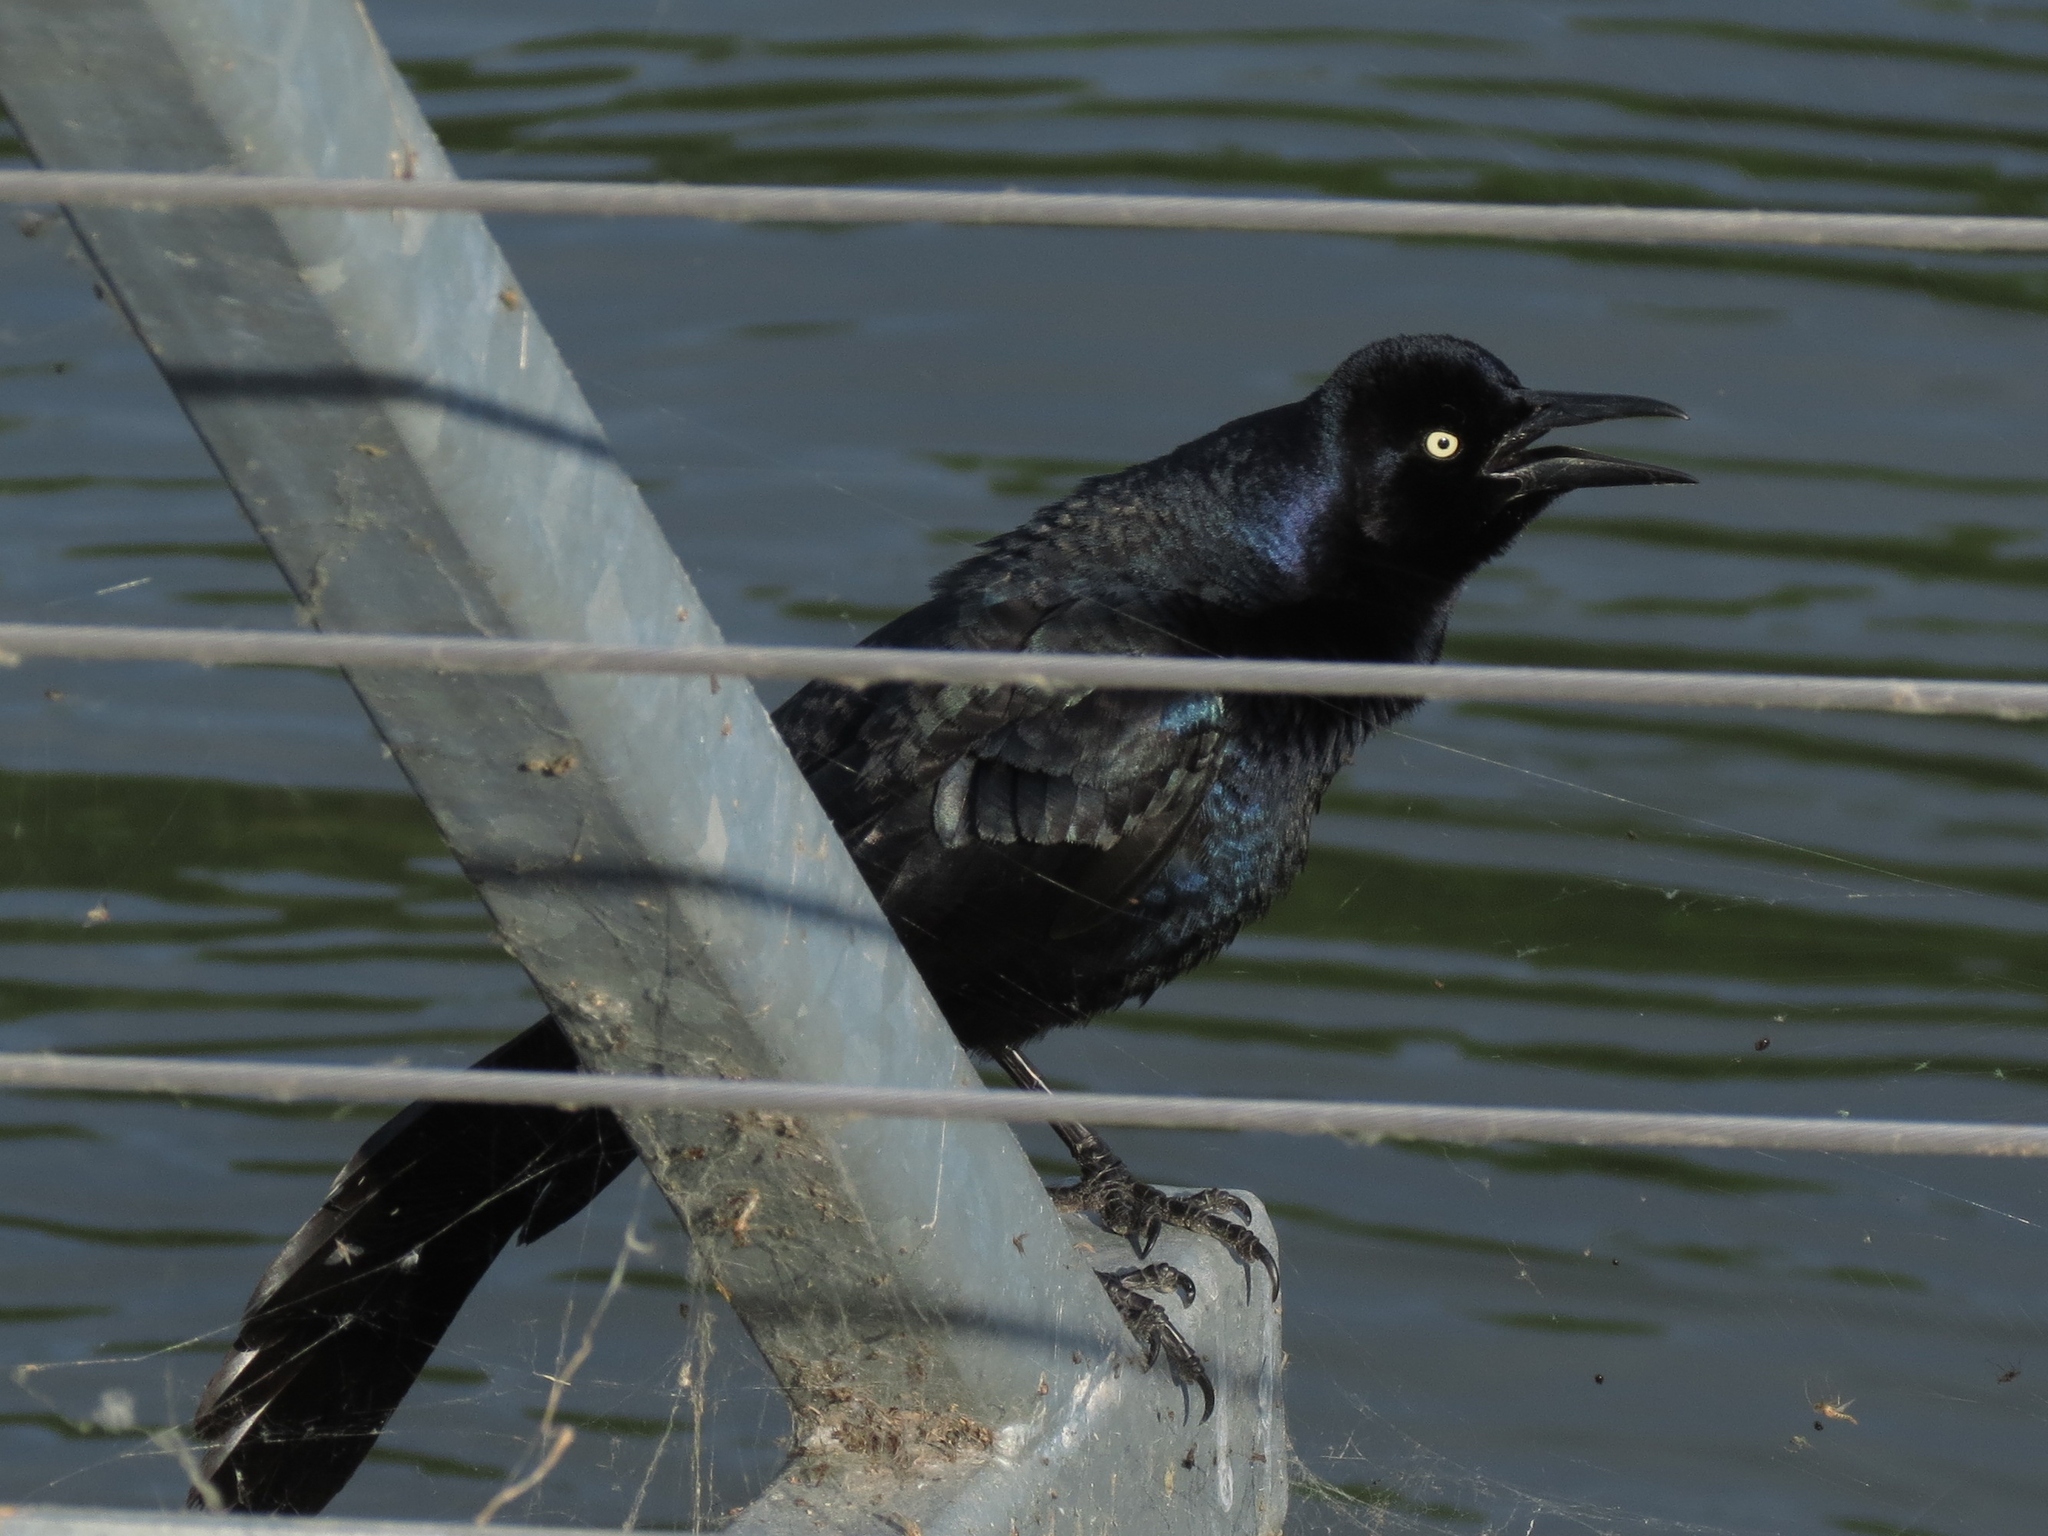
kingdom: Animalia
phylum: Chordata
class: Aves
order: Passeriformes
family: Icteridae
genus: Quiscalus
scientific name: Quiscalus mexicanus
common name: Great-tailed grackle
